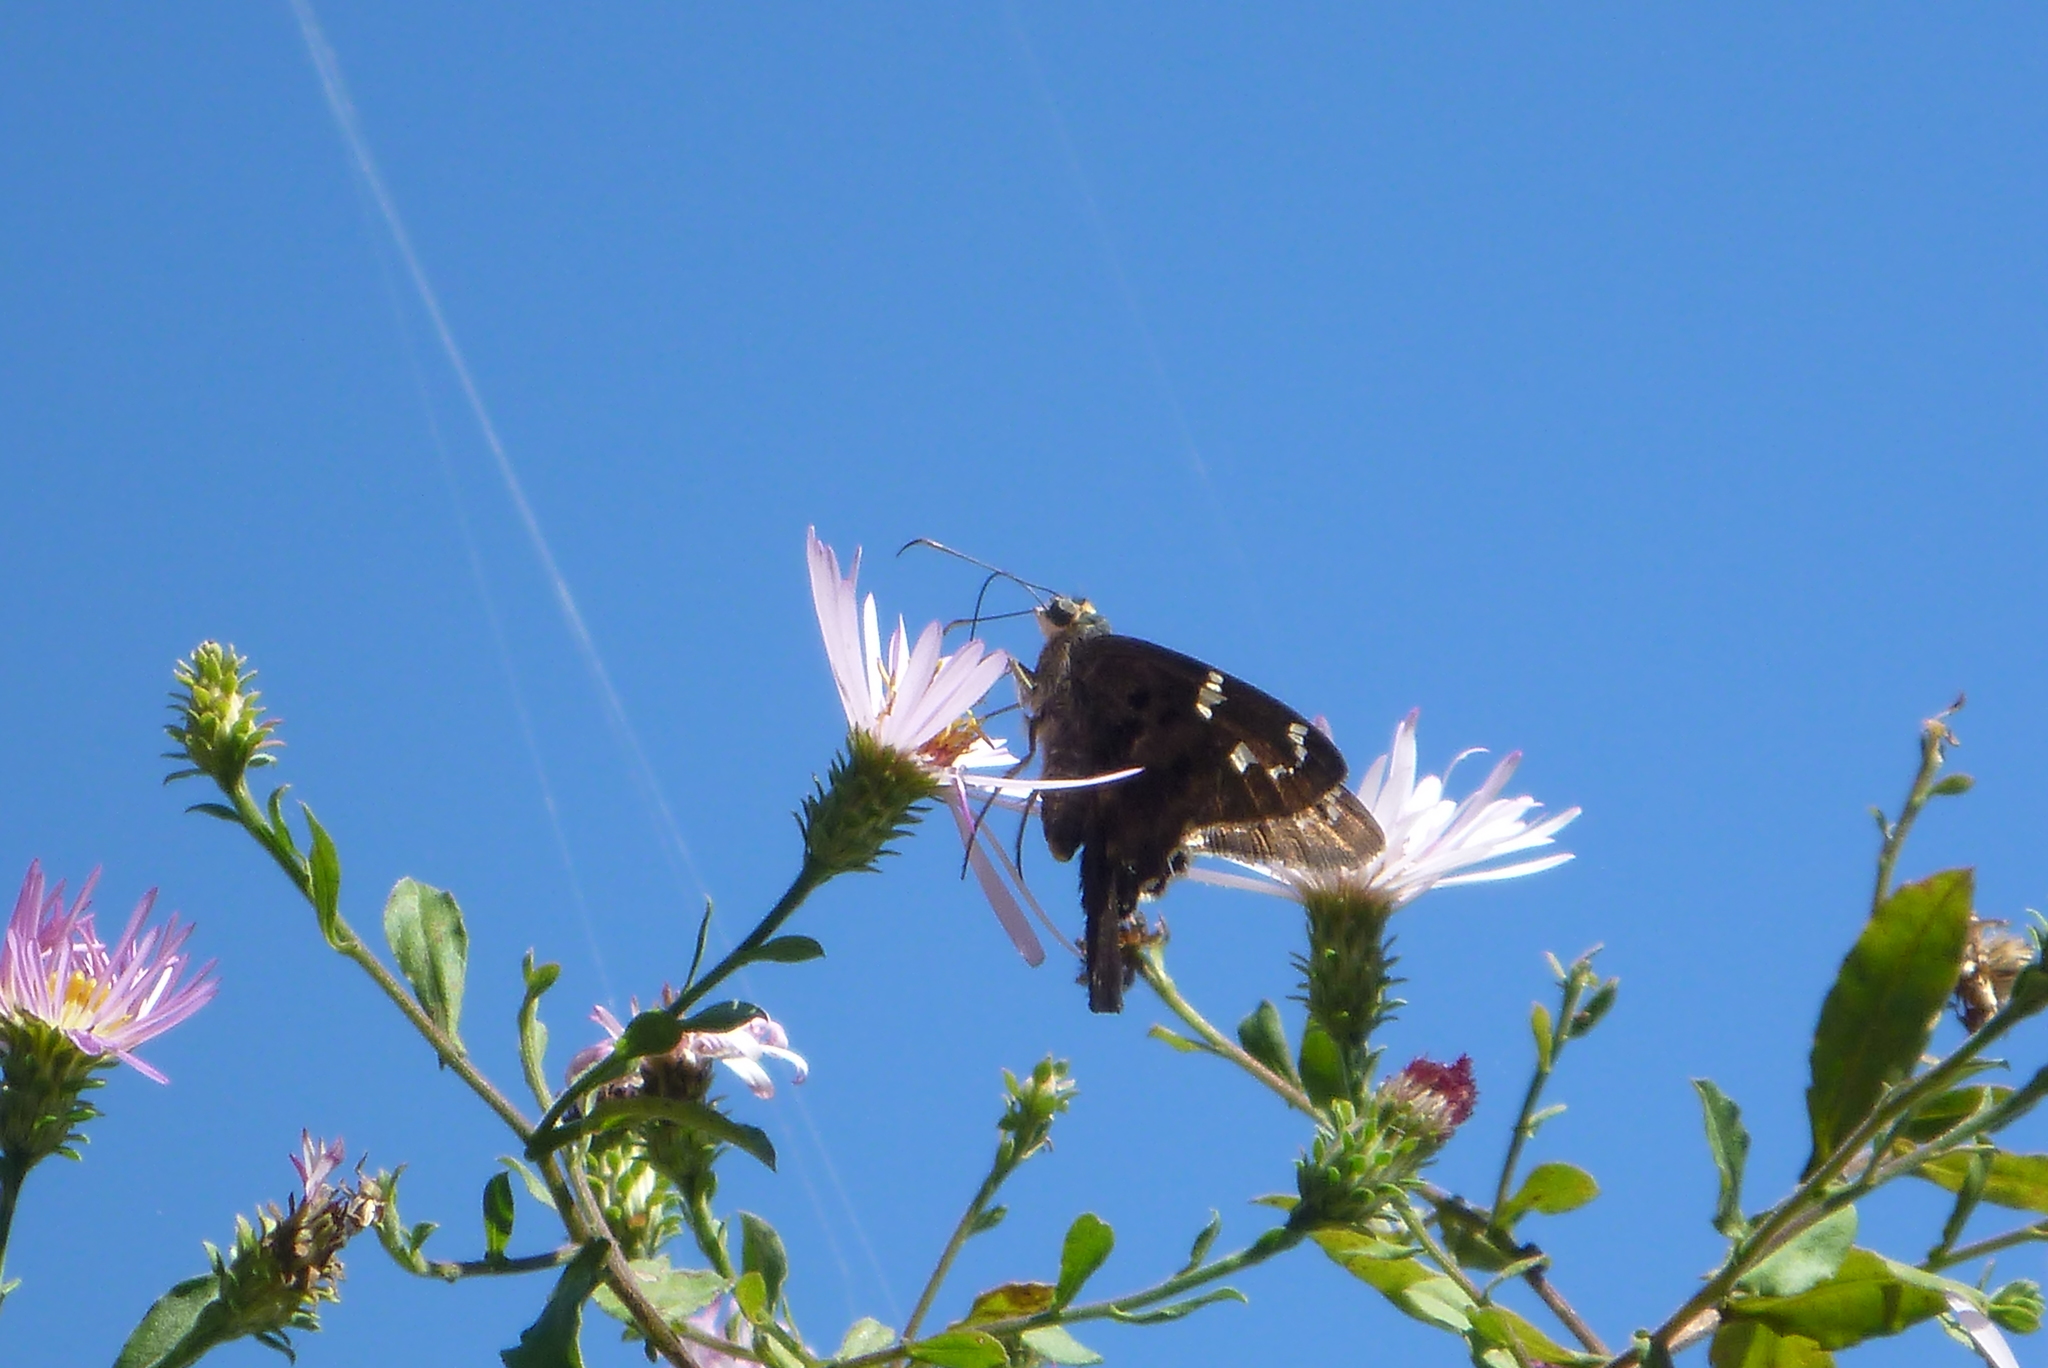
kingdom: Animalia
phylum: Arthropoda
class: Insecta
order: Lepidoptera
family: Hesperiidae
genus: Urbanus
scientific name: Urbanus proteus
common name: Long-tailed skipper
